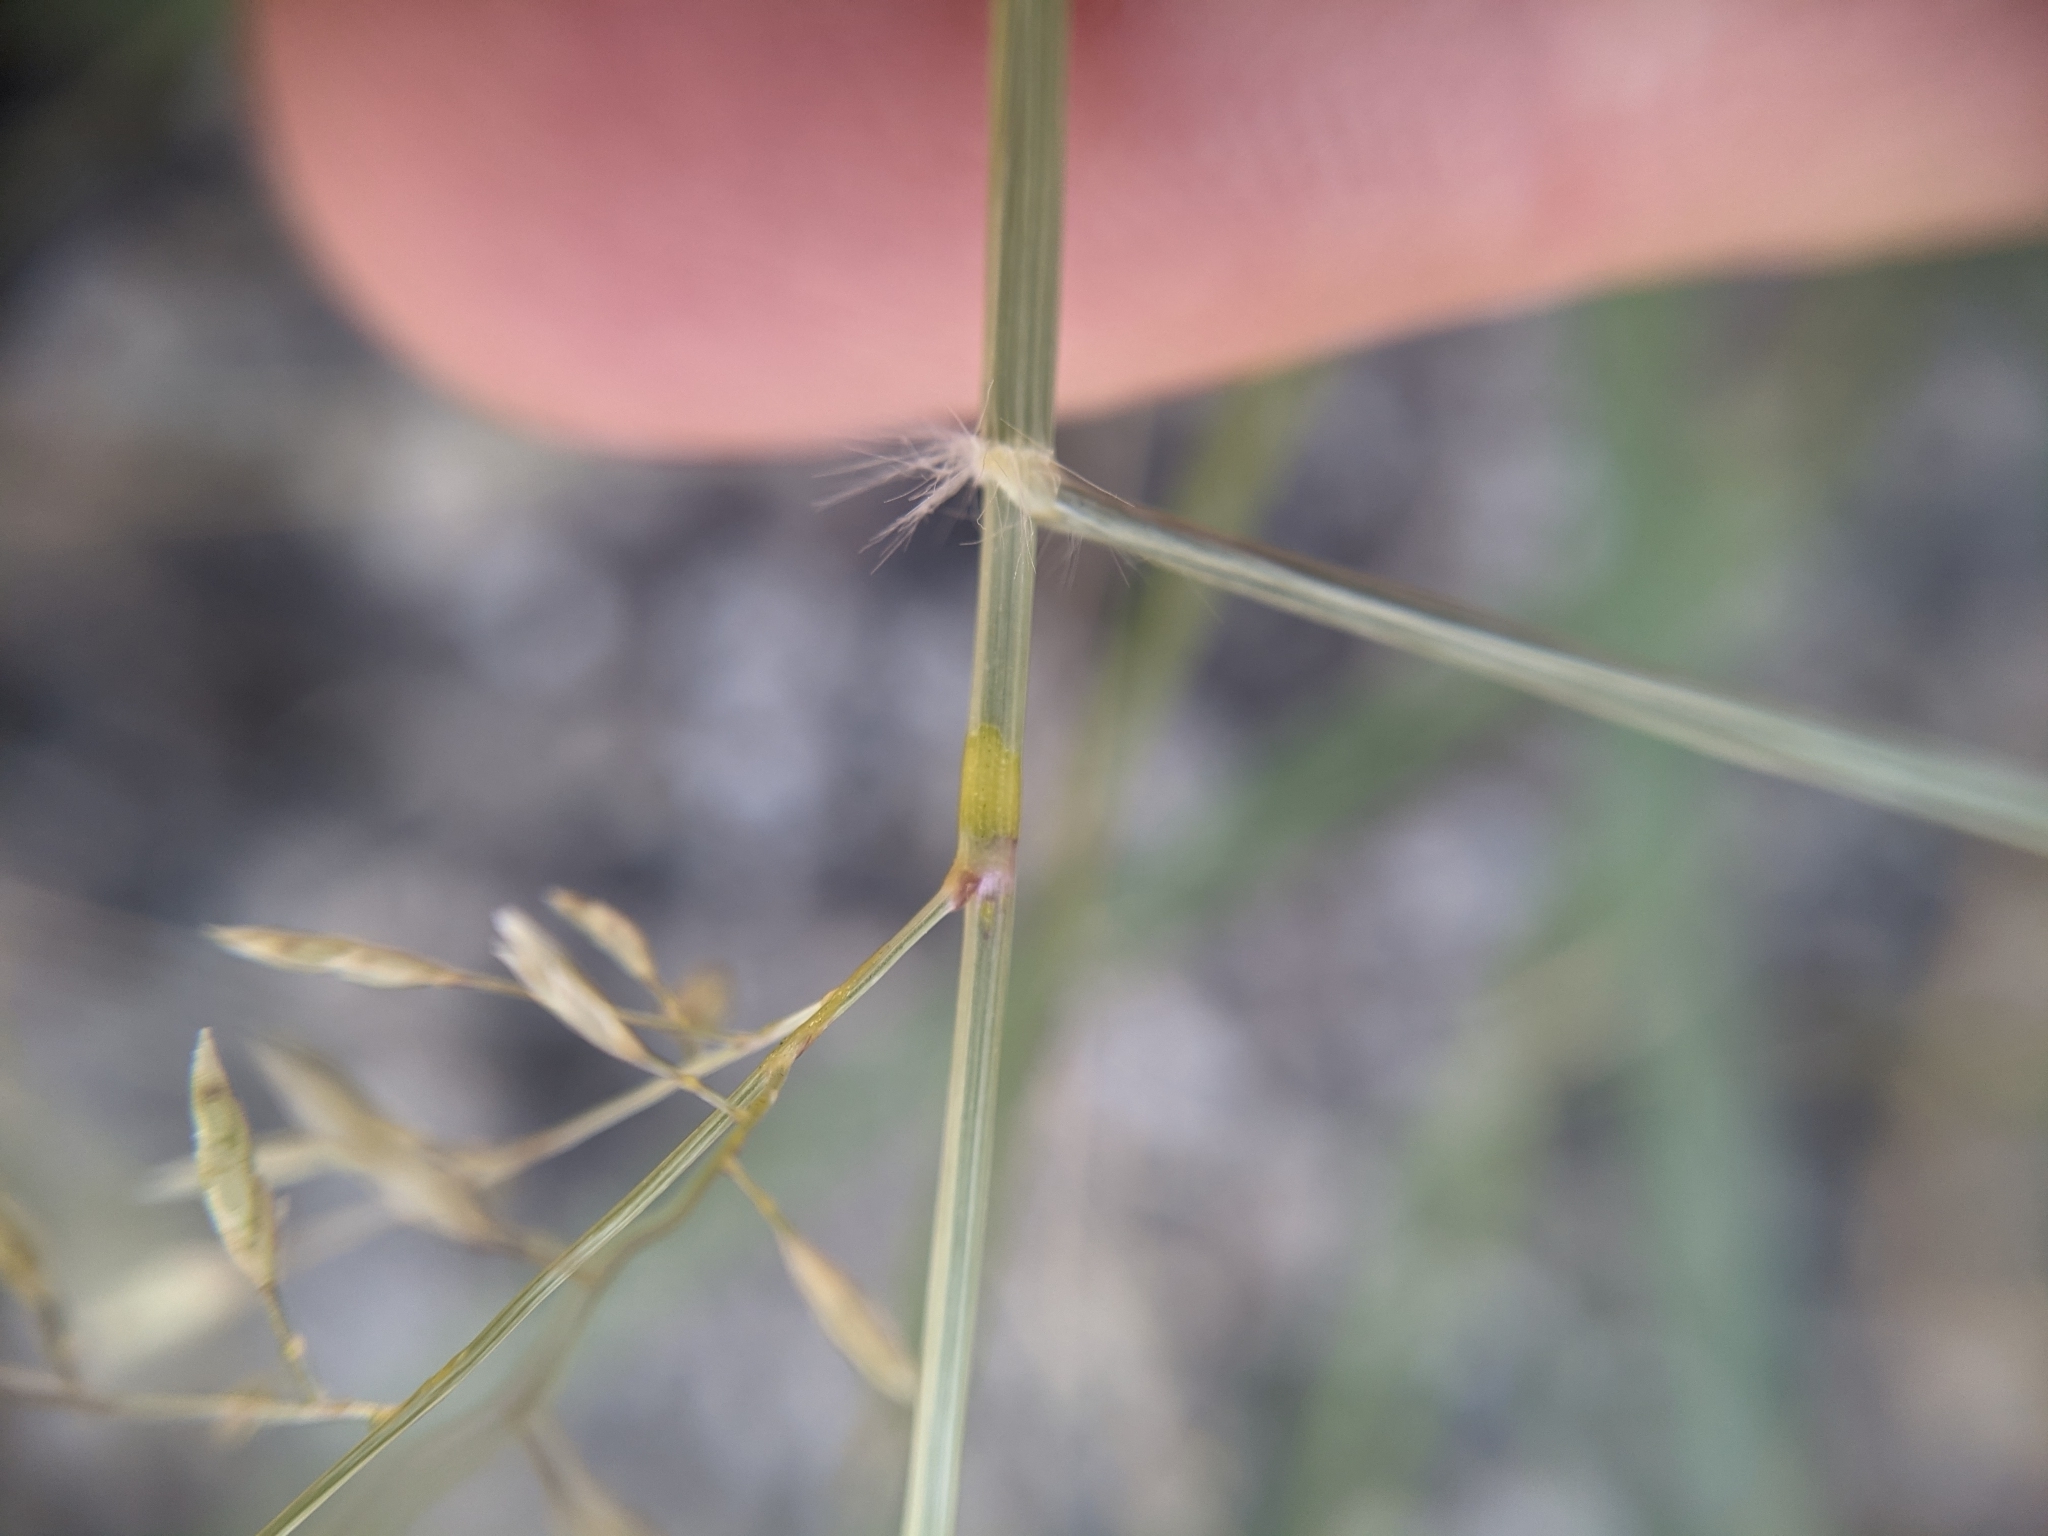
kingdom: Plantae
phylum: Tracheophyta
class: Liliopsida
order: Poales
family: Poaceae
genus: Eragrostis
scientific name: Eragrostis barrelieri
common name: Mediterranean lovegrass
